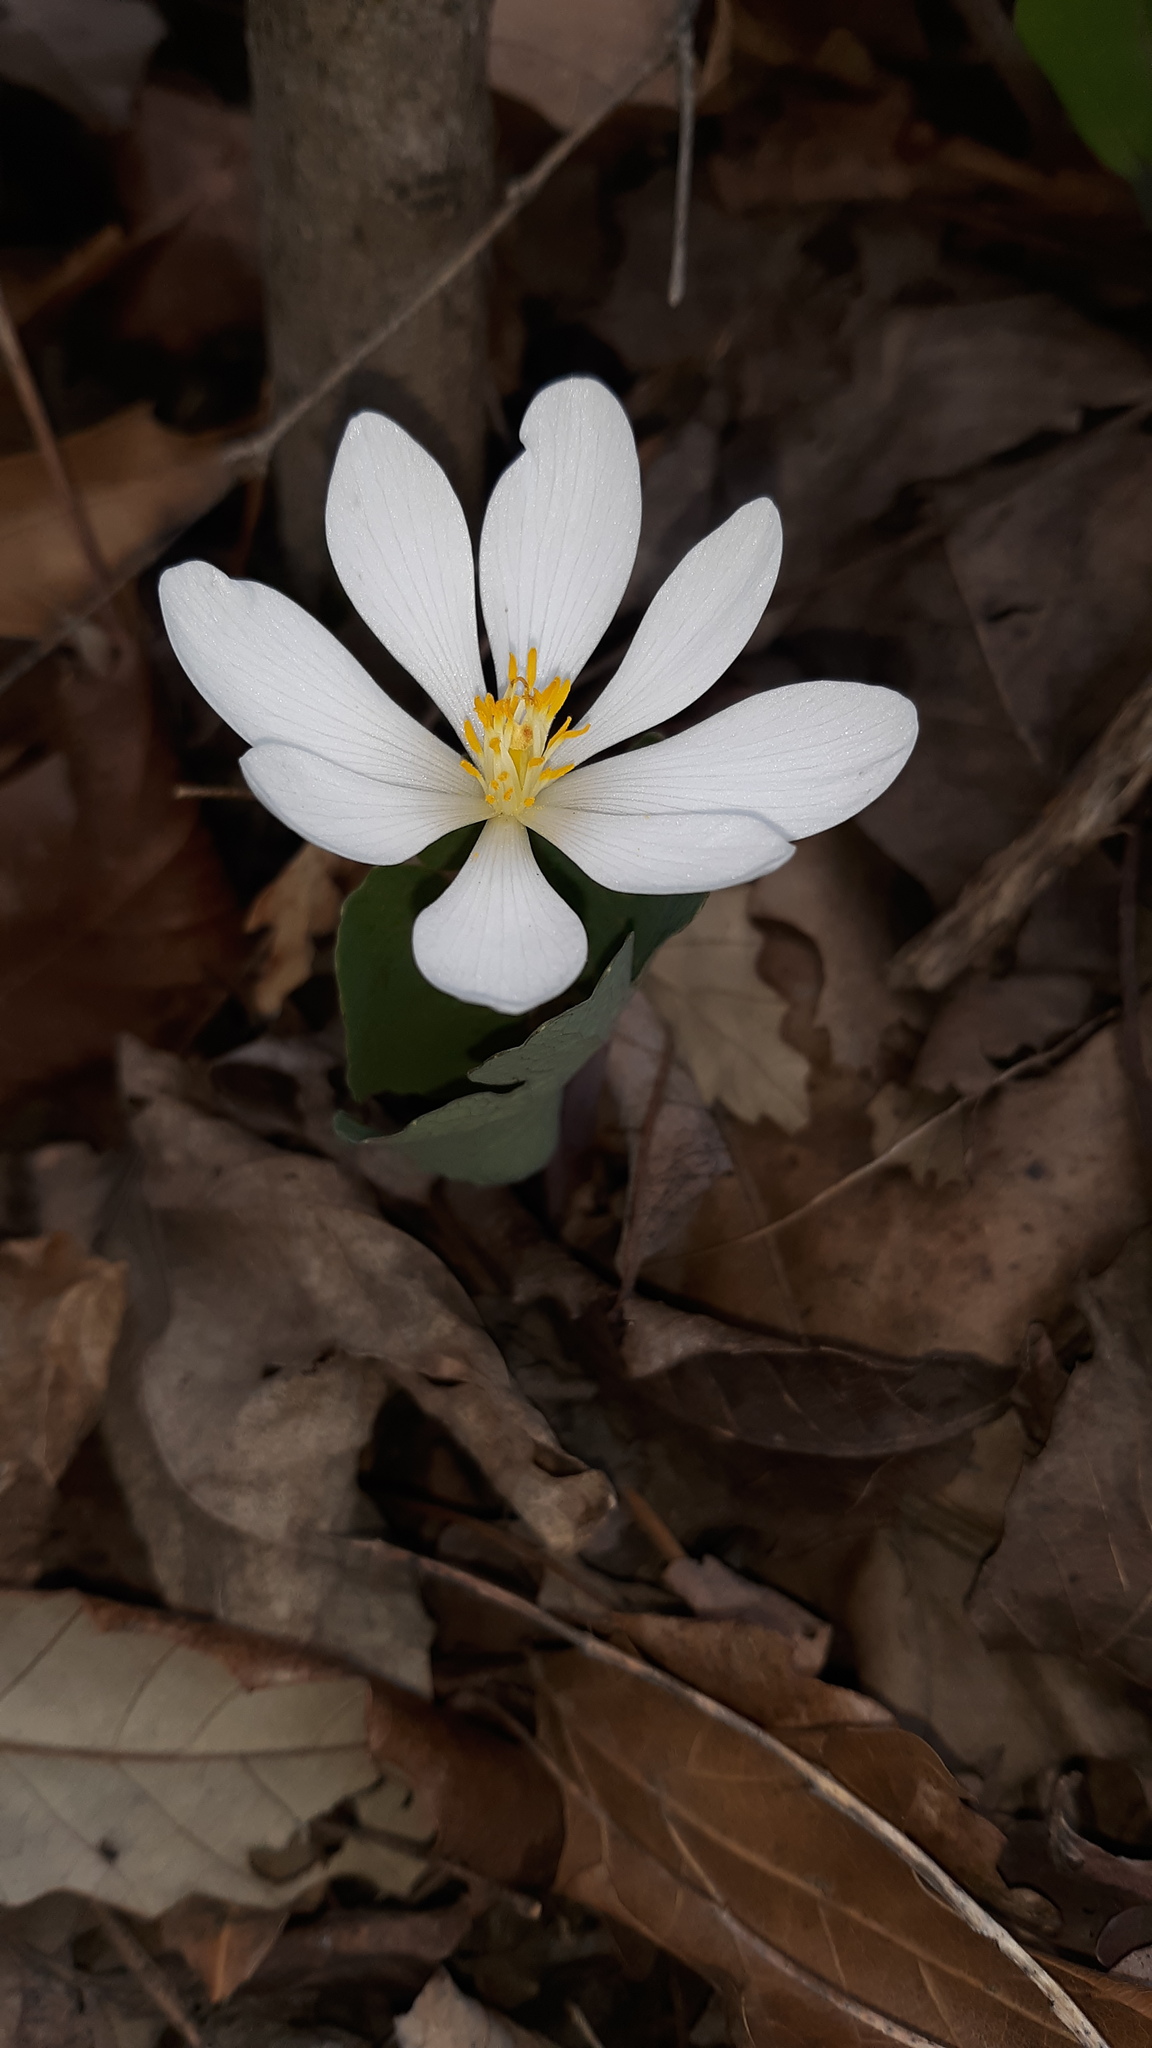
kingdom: Plantae
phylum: Tracheophyta
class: Magnoliopsida
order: Ranunculales
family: Papaveraceae
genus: Sanguinaria
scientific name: Sanguinaria canadensis
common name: Bloodroot
